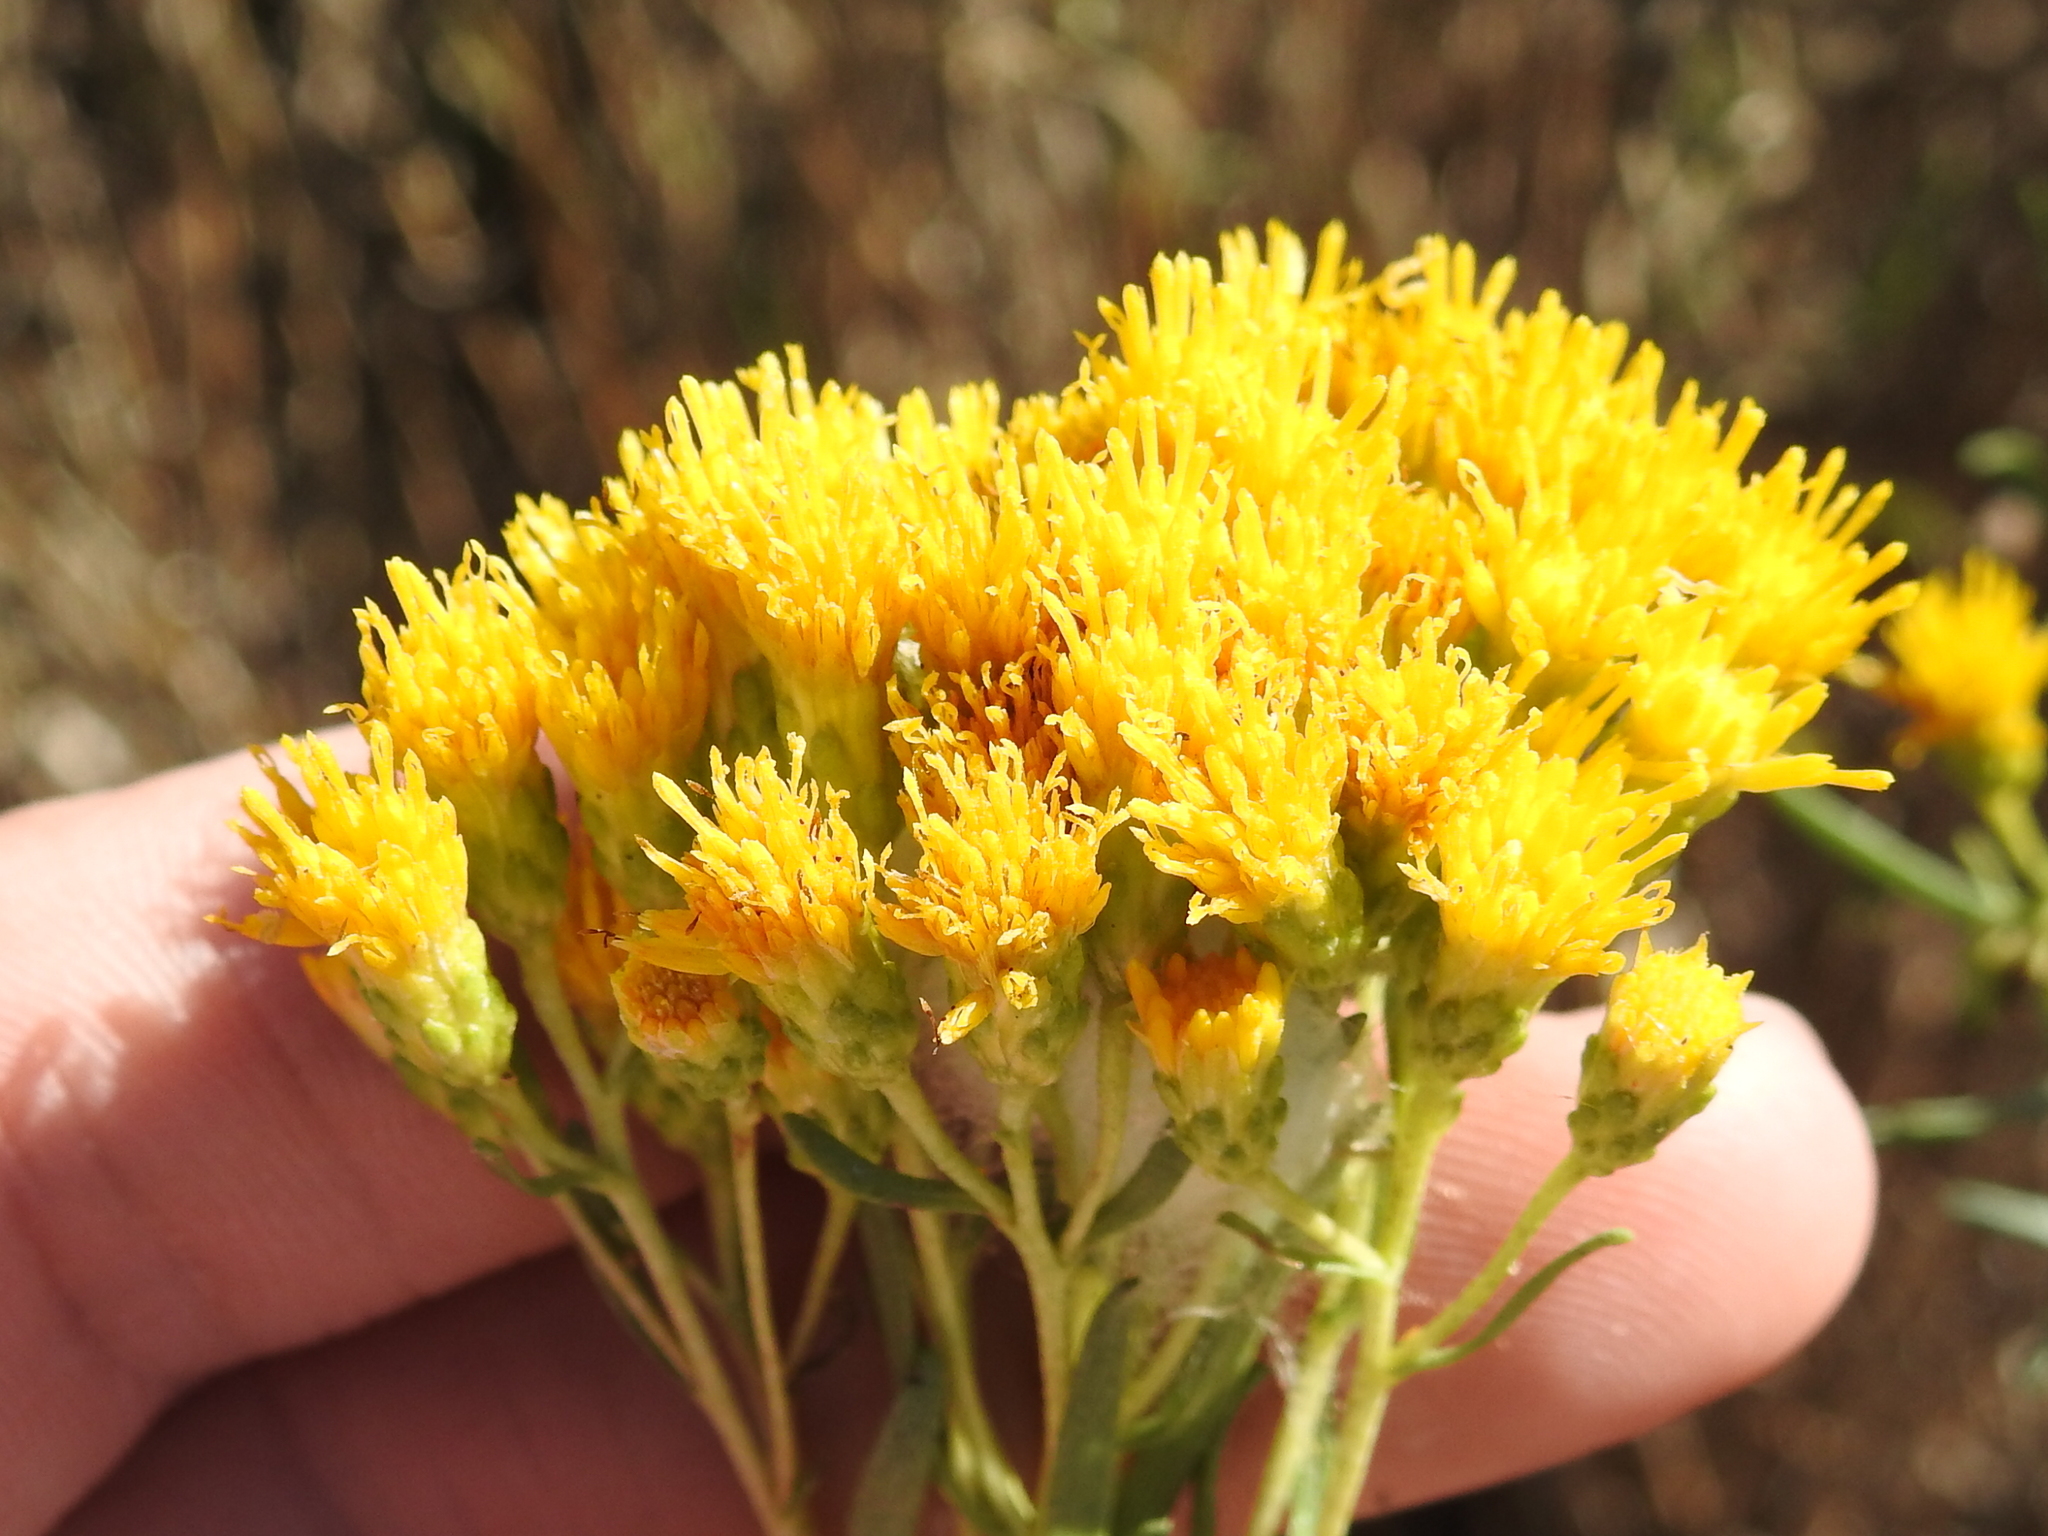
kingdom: Plantae
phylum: Tracheophyta
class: Magnoliopsida
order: Asterales
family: Asteraceae
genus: Isocoma
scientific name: Isocoma drummondii
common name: Drummond's jimmyweed
